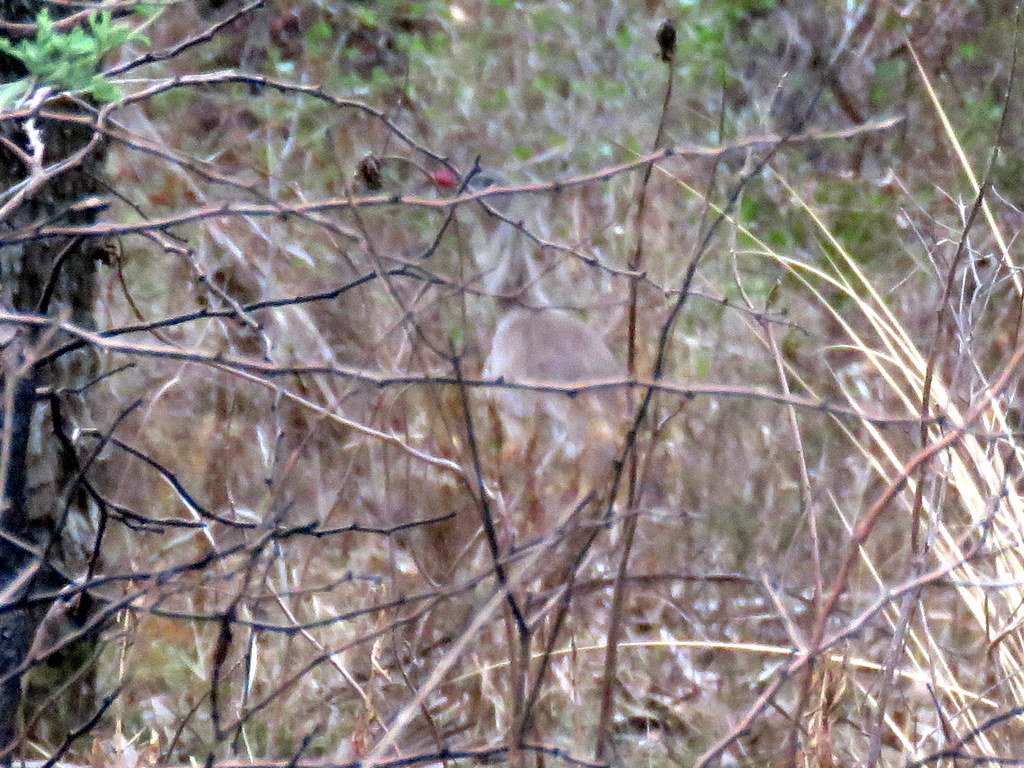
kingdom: Animalia
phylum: Chordata
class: Aves
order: Cariamiformes
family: Cariamidae
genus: Cariama
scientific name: Cariama cristata
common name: Red-legged seriema
